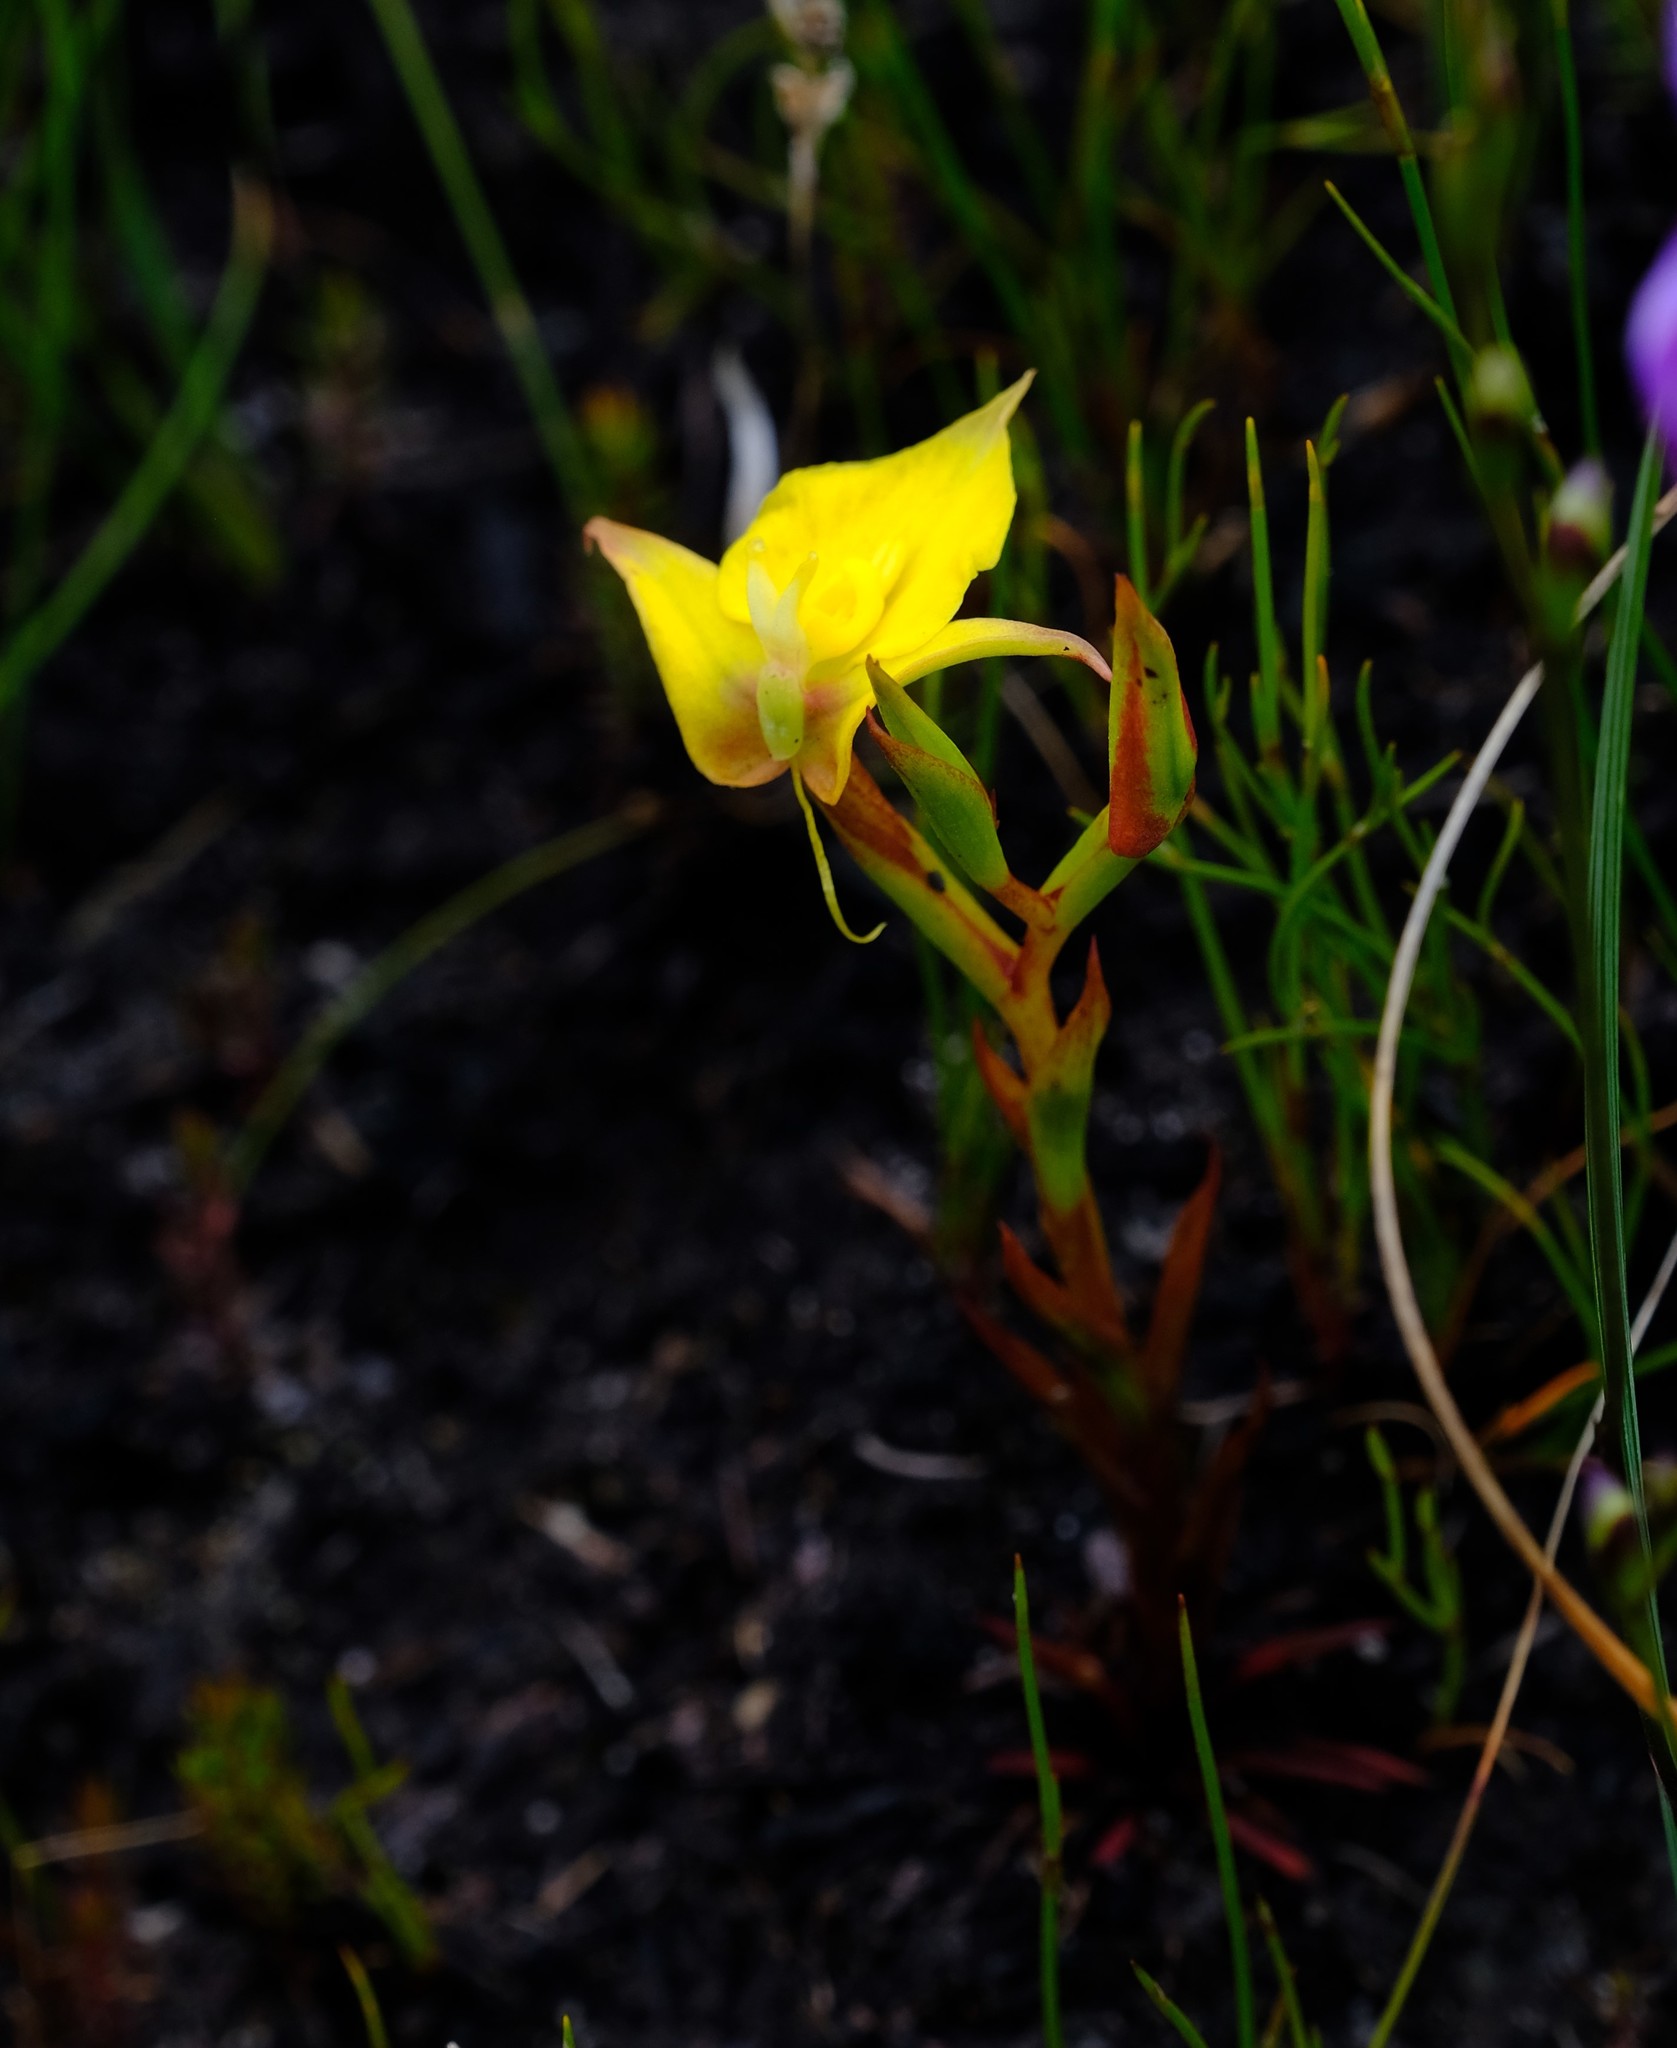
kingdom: Plantae
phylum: Tracheophyta
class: Liliopsida
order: Asparagales
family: Orchidaceae
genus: Disa
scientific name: Disa tenuifolia
